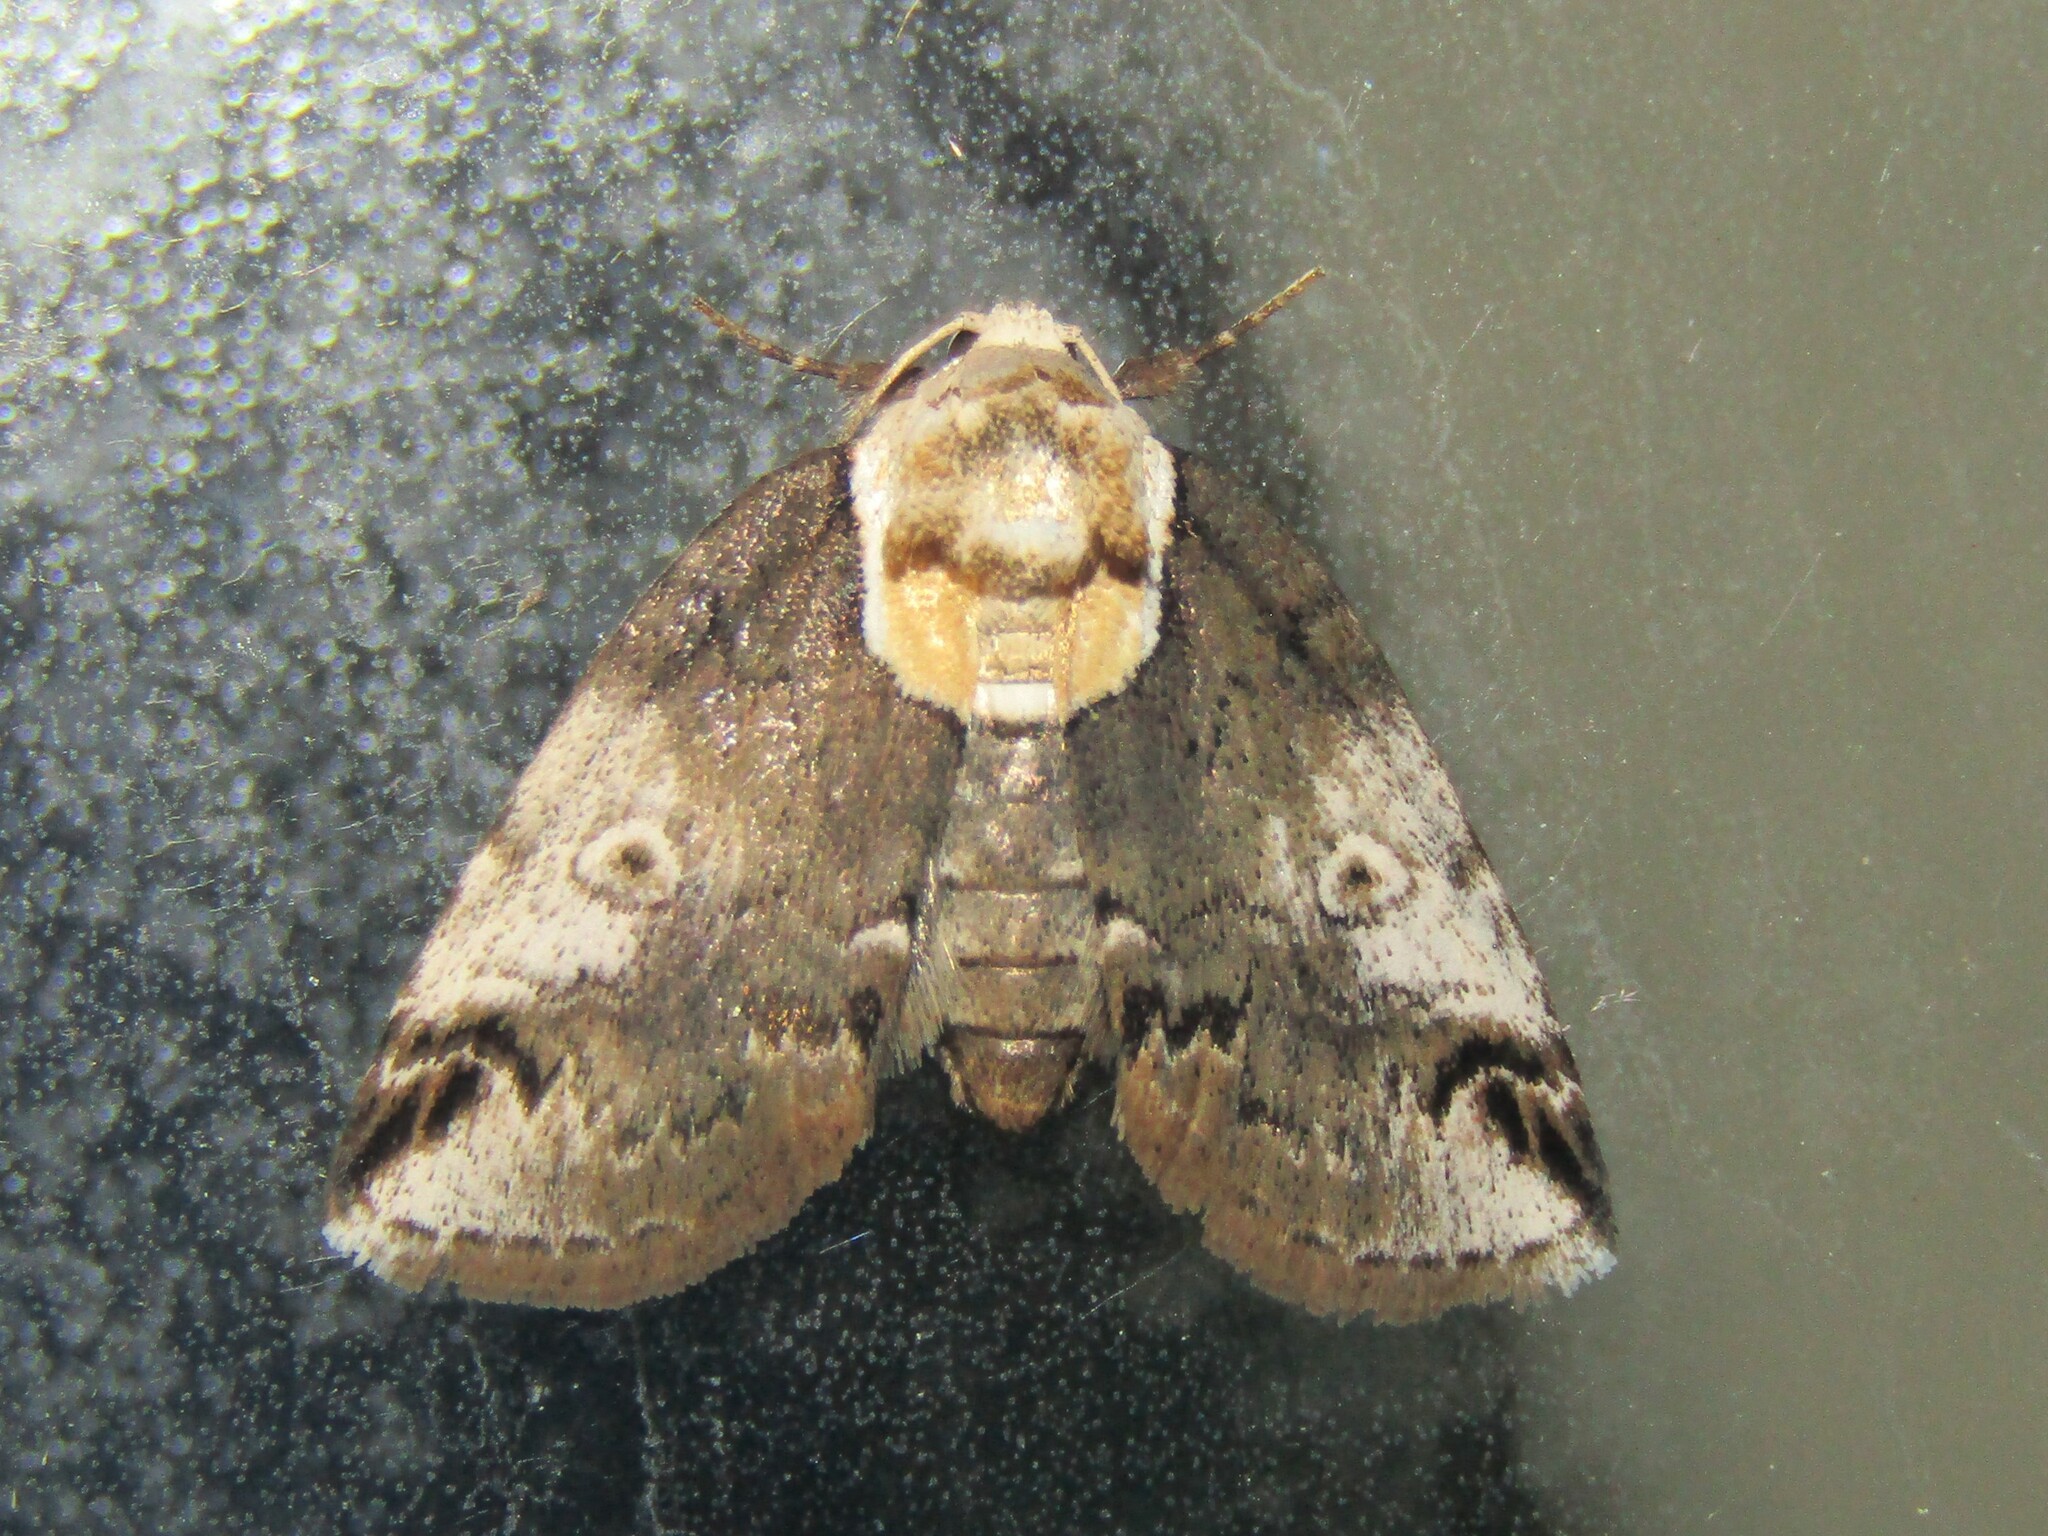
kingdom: Animalia
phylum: Arthropoda
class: Insecta
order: Lepidoptera
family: Nolidae
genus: Baileya
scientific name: Baileya ophthalmica
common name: Eyed baileya moth
